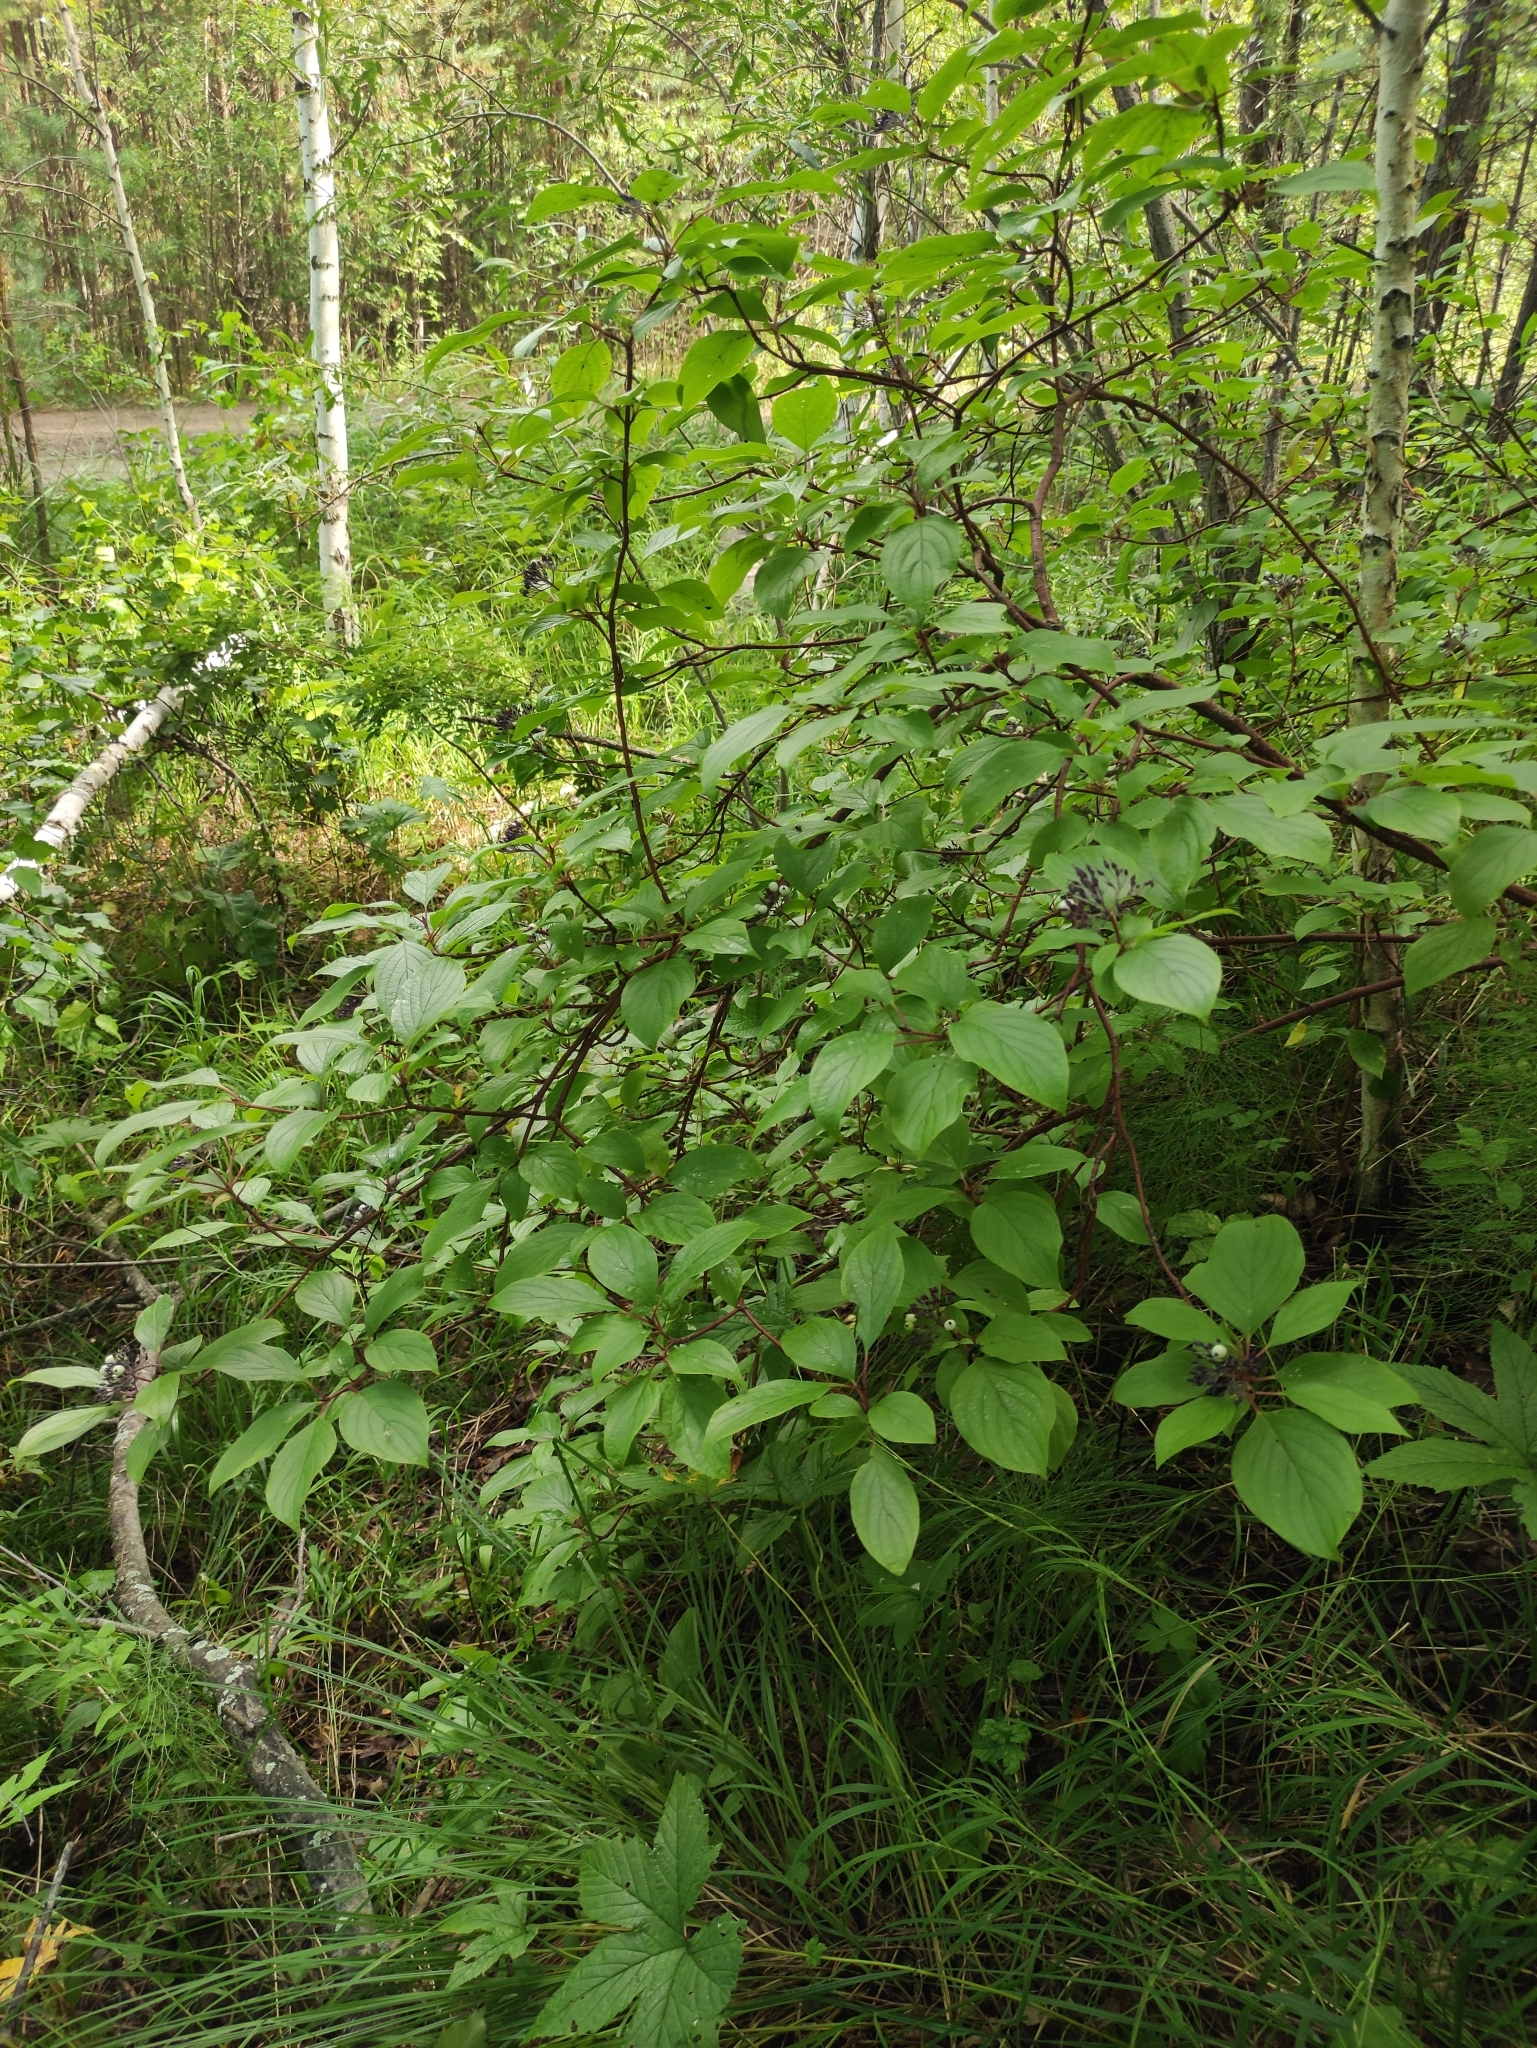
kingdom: Plantae
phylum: Tracheophyta
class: Magnoliopsida
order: Cornales
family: Cornaceae
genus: Cornus
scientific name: Cornus alba
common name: White dogwood
